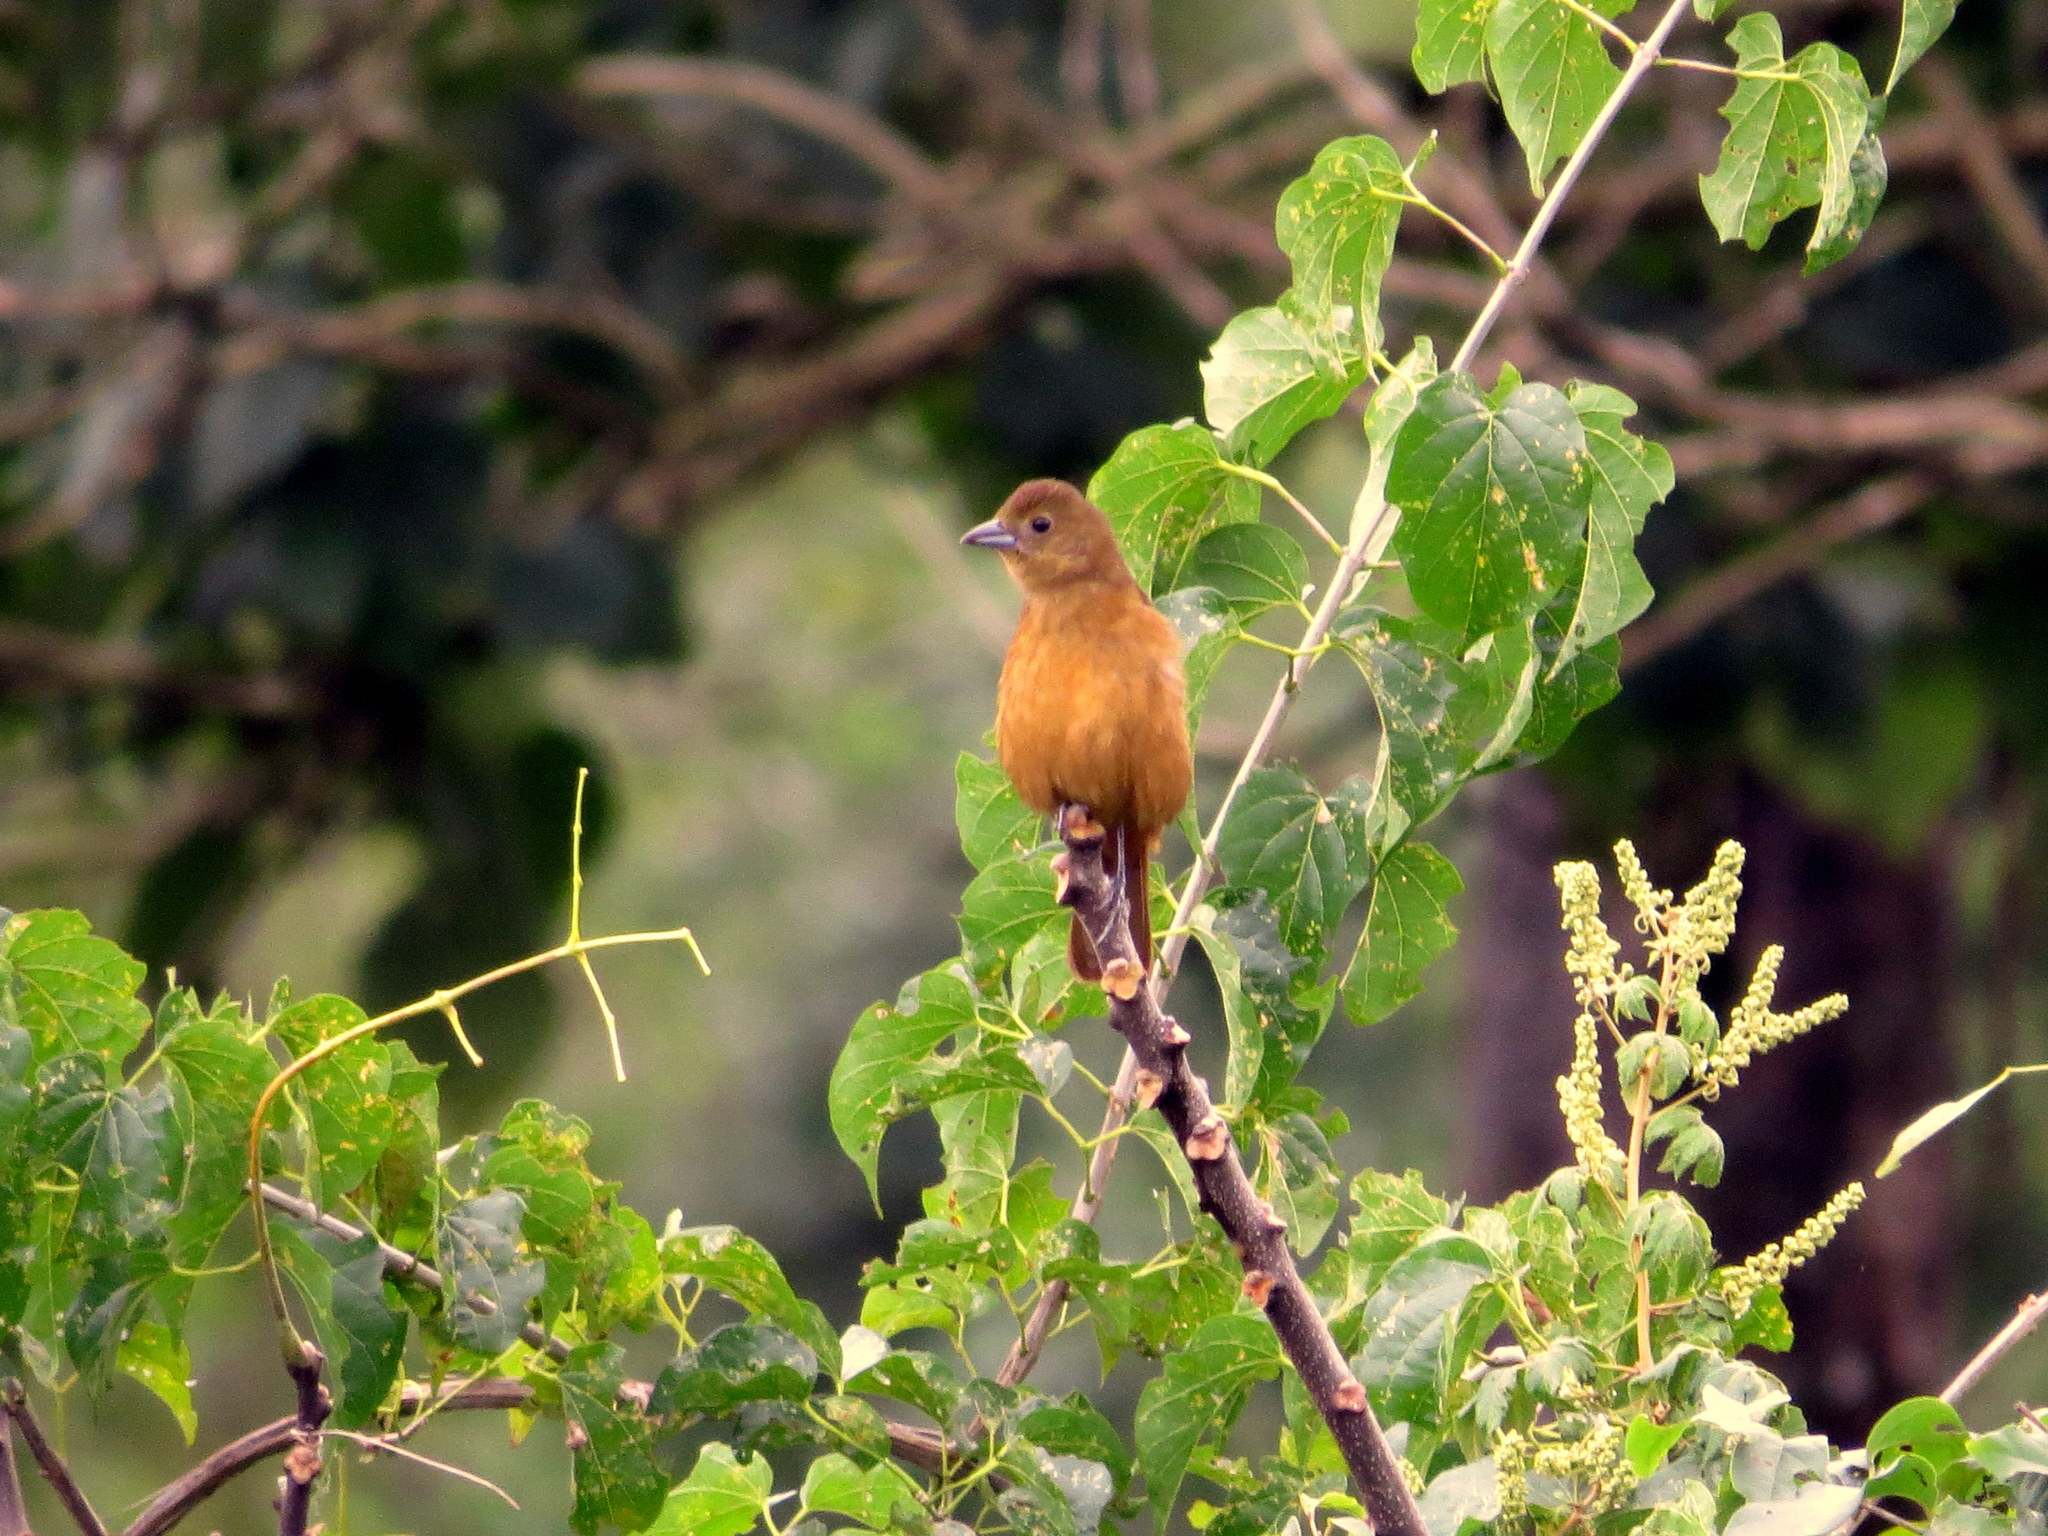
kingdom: Animalia
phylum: Chordata
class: Aves
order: Passeriformes
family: Thraupidae
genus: Tachyphonus
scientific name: Tachyphonus coronatus
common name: Ruby-crowned tanager
